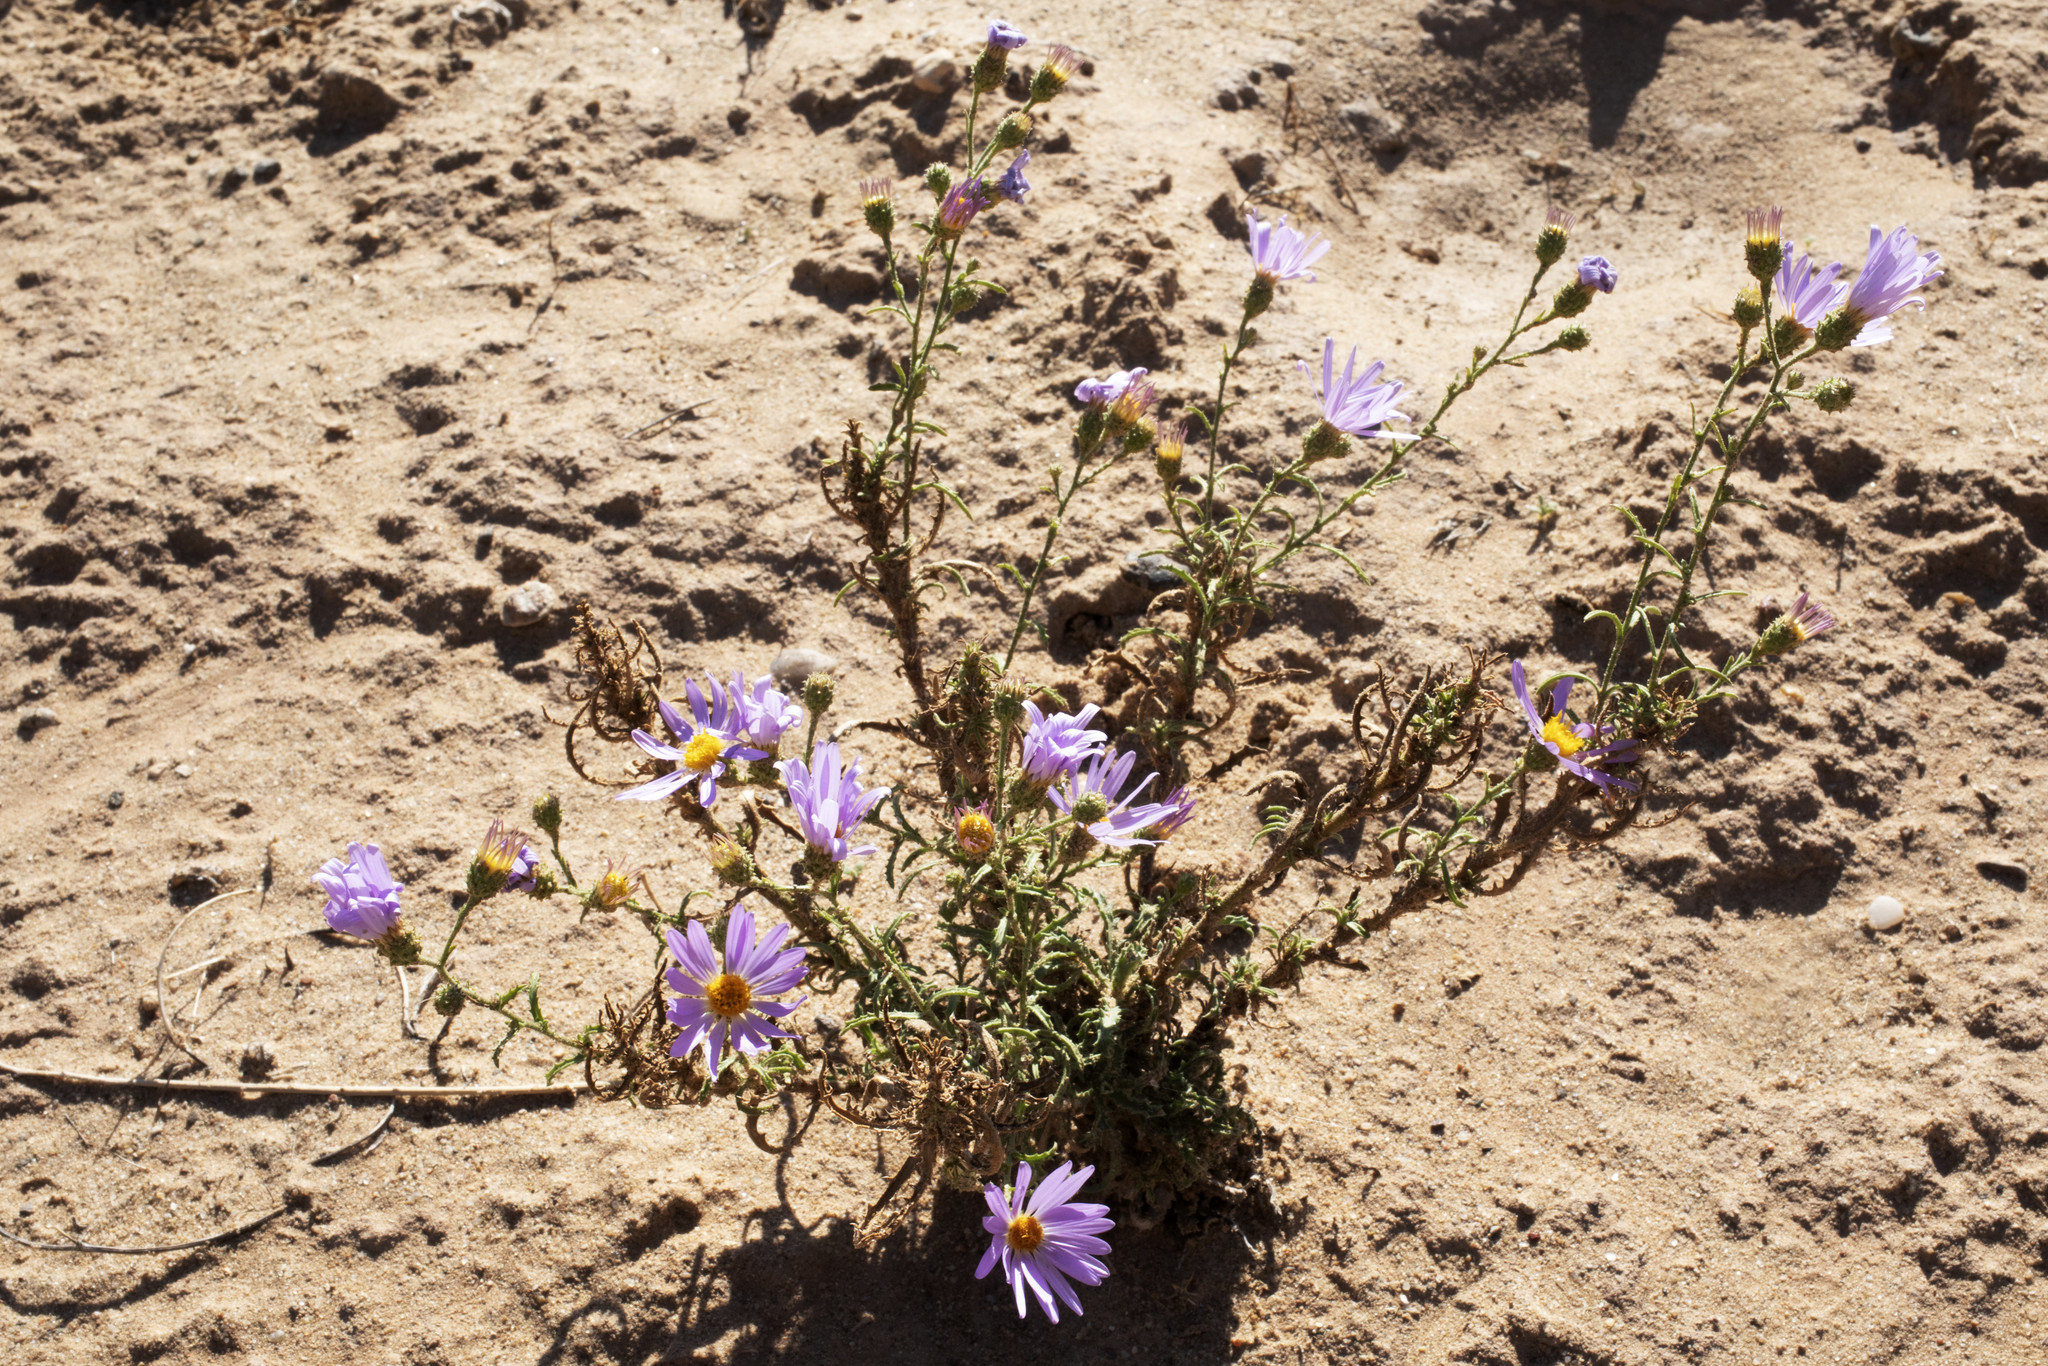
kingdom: Plantae
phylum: Tracheophyta
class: Magnoliopsida
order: Asterales
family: Asteraceae
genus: Dieteria
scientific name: Dieteria canescens
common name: Hoary-aster
